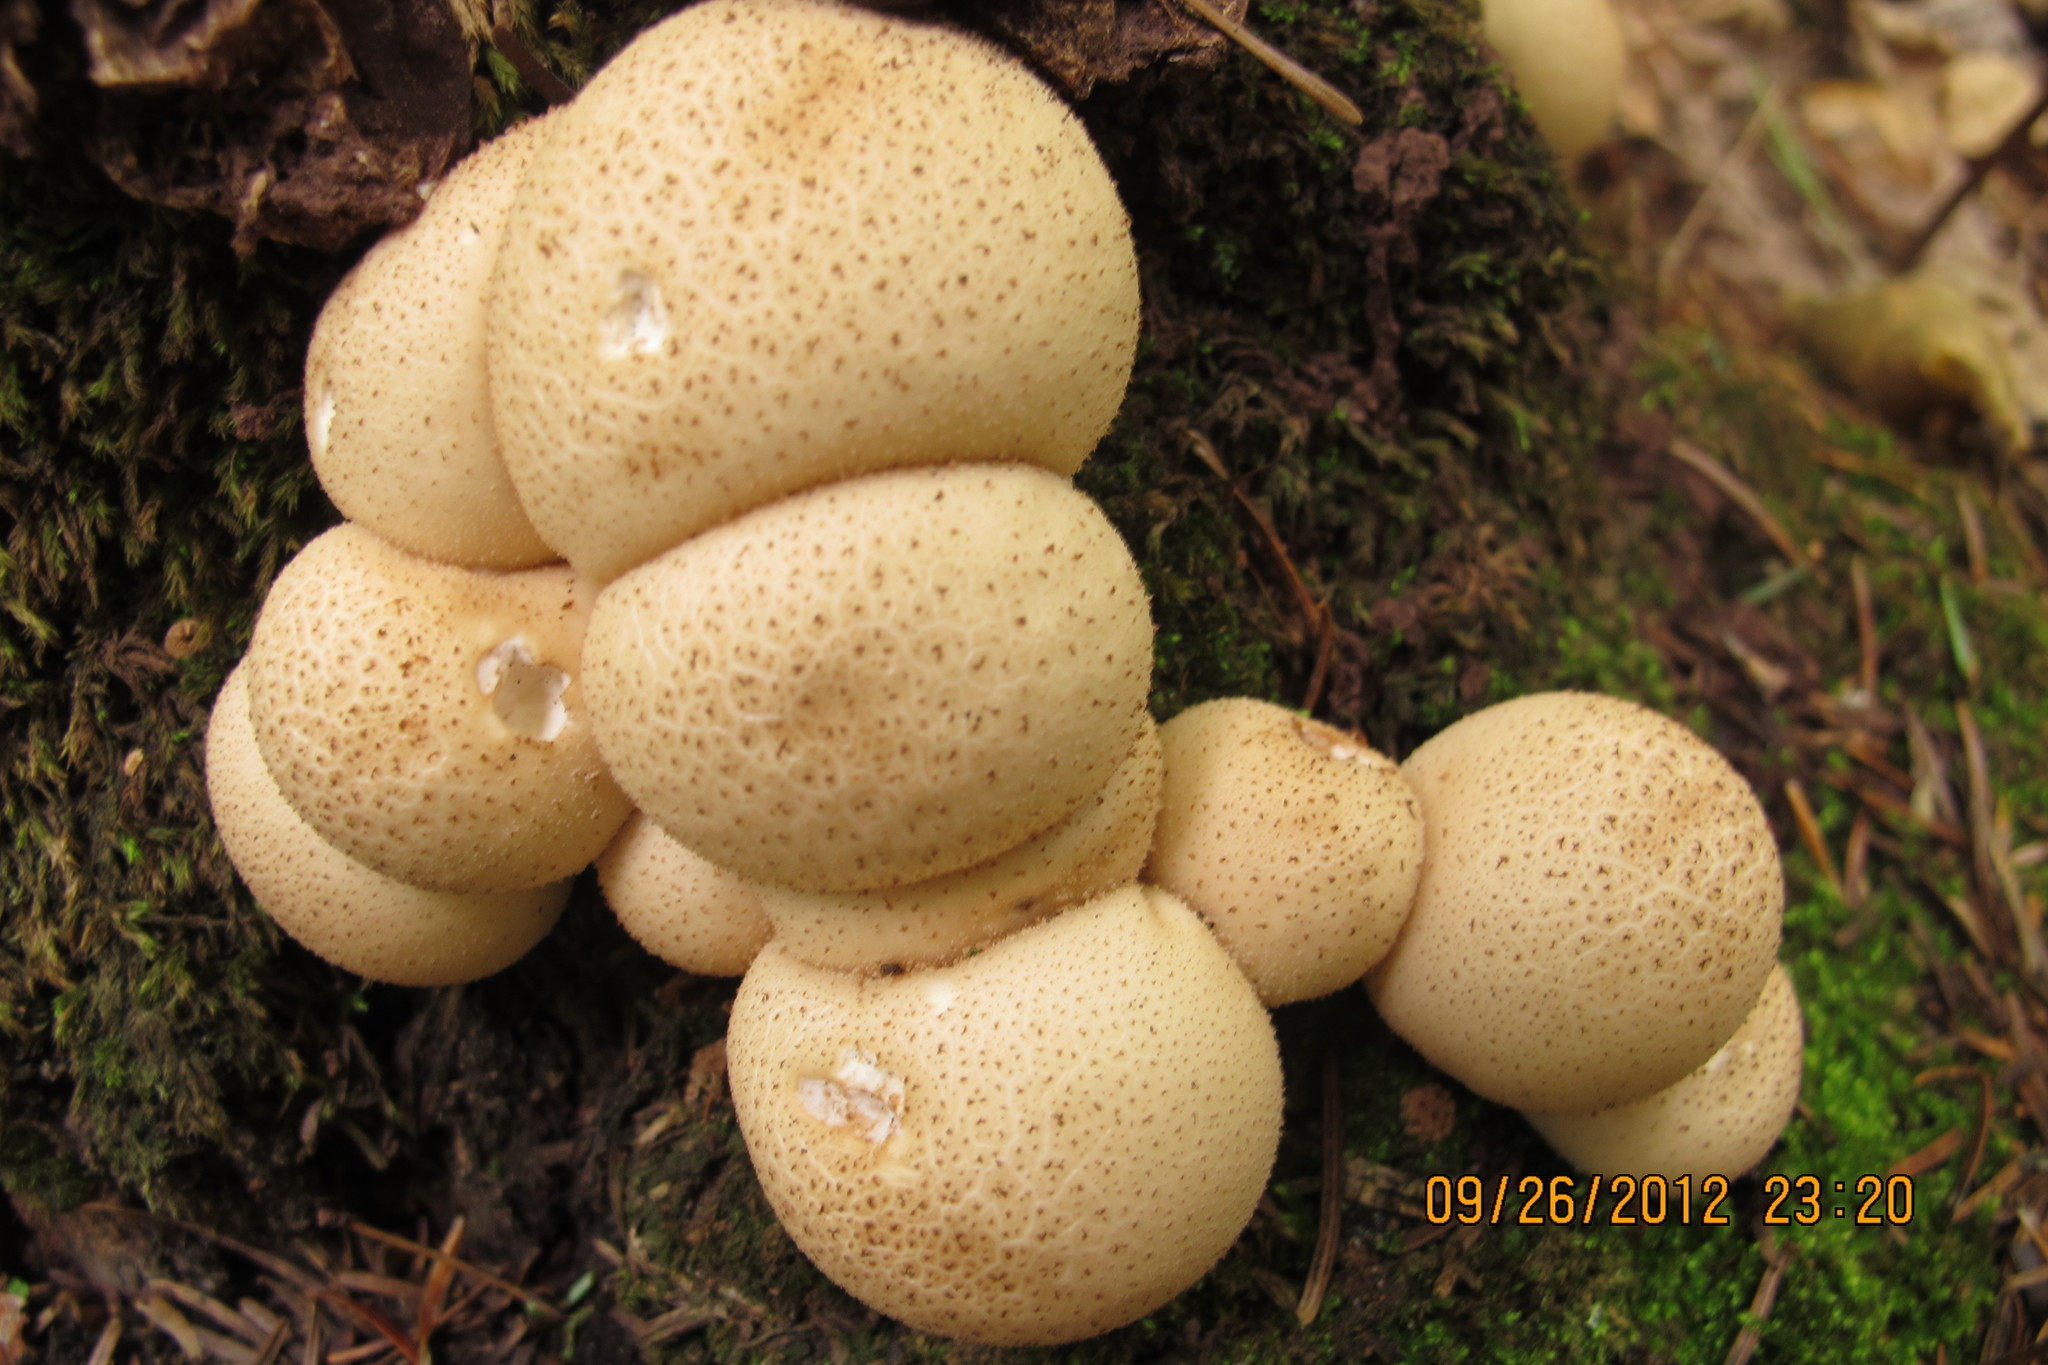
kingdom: Fungi
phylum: Basidiomycota
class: Agaricomycetes
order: Agaricales
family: Lycoperdaceae
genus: Apioperdon
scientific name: Apioperdon pyriforme
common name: Pear-shaped puffball
